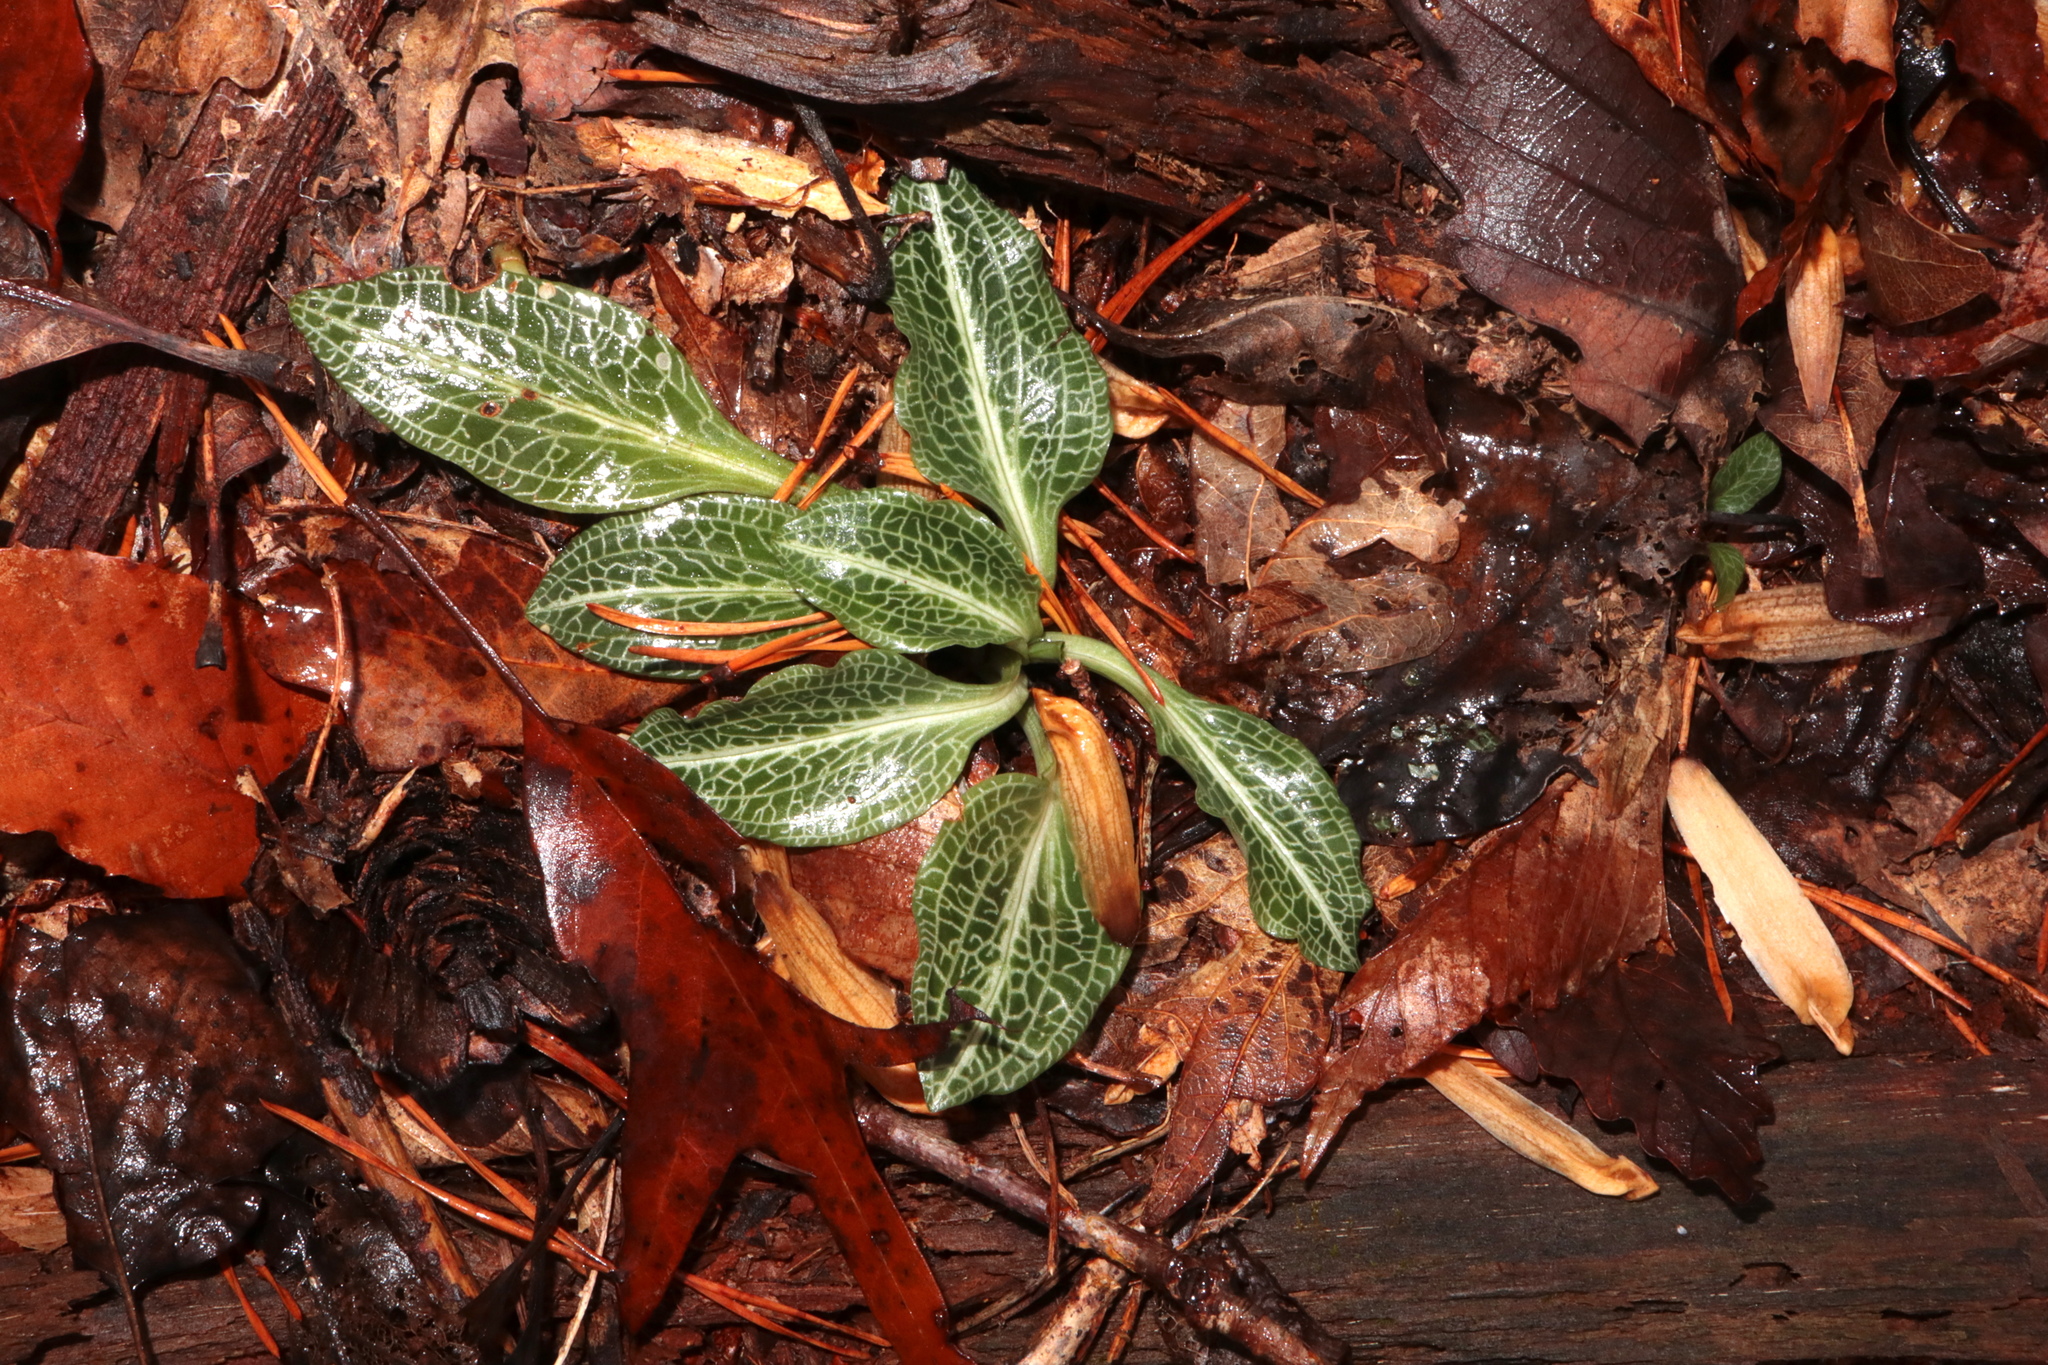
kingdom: Plantae
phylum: Tracheophyta
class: Liliopsida
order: Asparagales
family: Orchidaceae
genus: Goodyera
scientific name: Goodyera pubescens
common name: Downy rattlesnake-plantain
